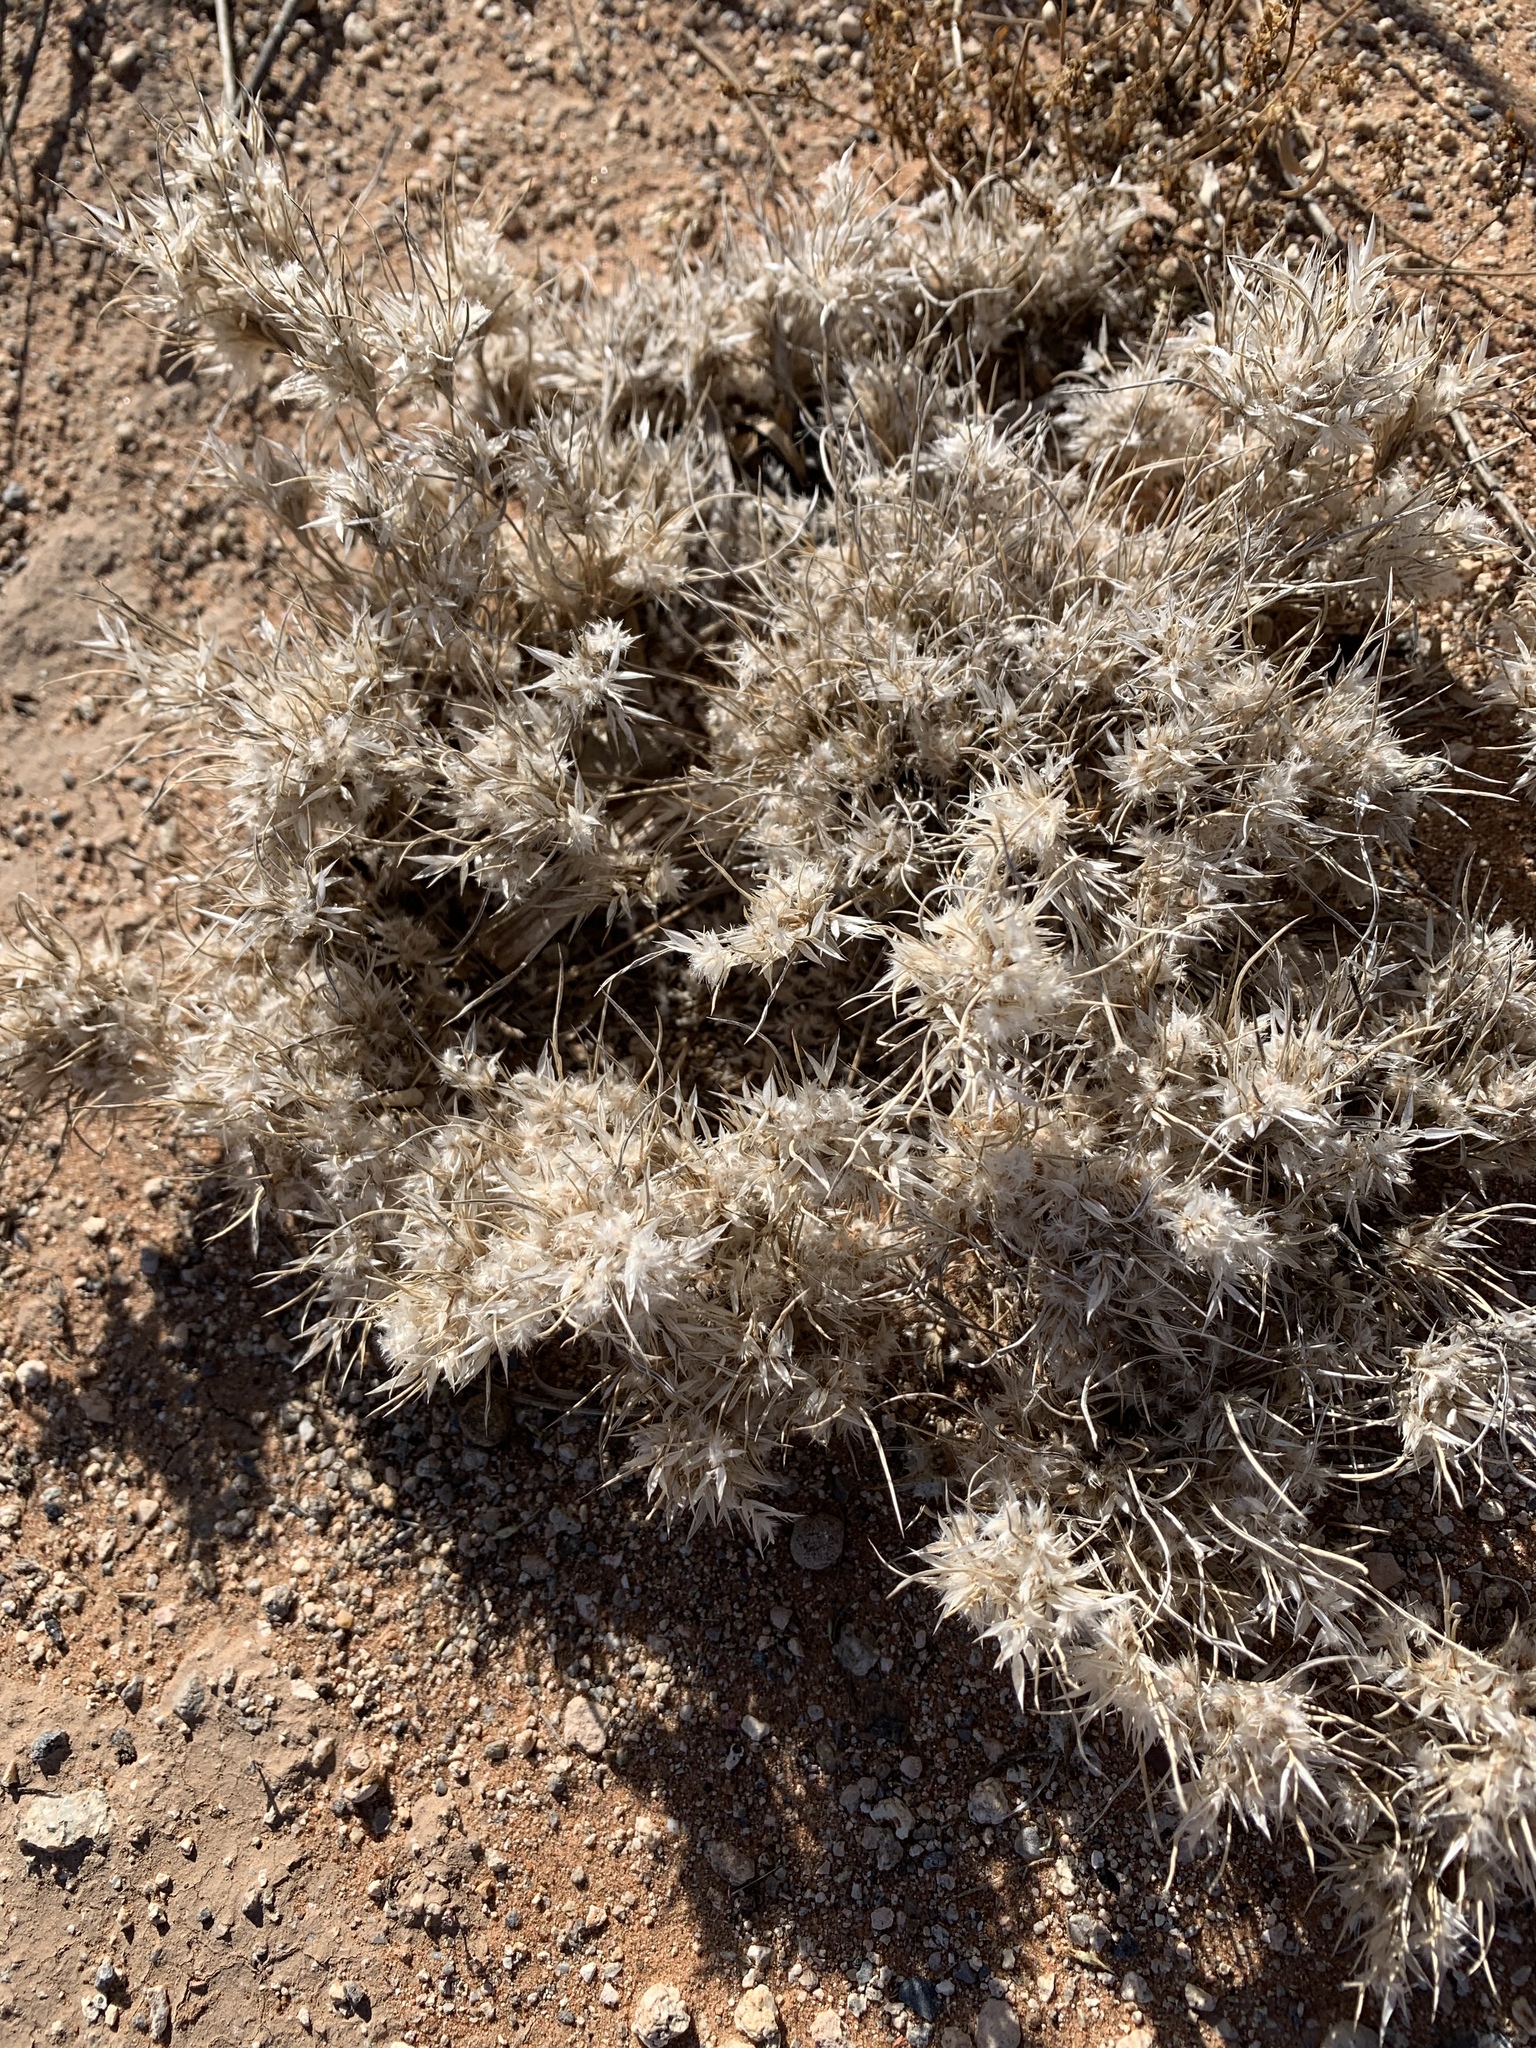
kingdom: Plantae
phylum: Tracheophyta
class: Liliopsida
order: Poales
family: Poaceae
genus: Dasyochloa
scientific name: Dasyochloa pulchella
